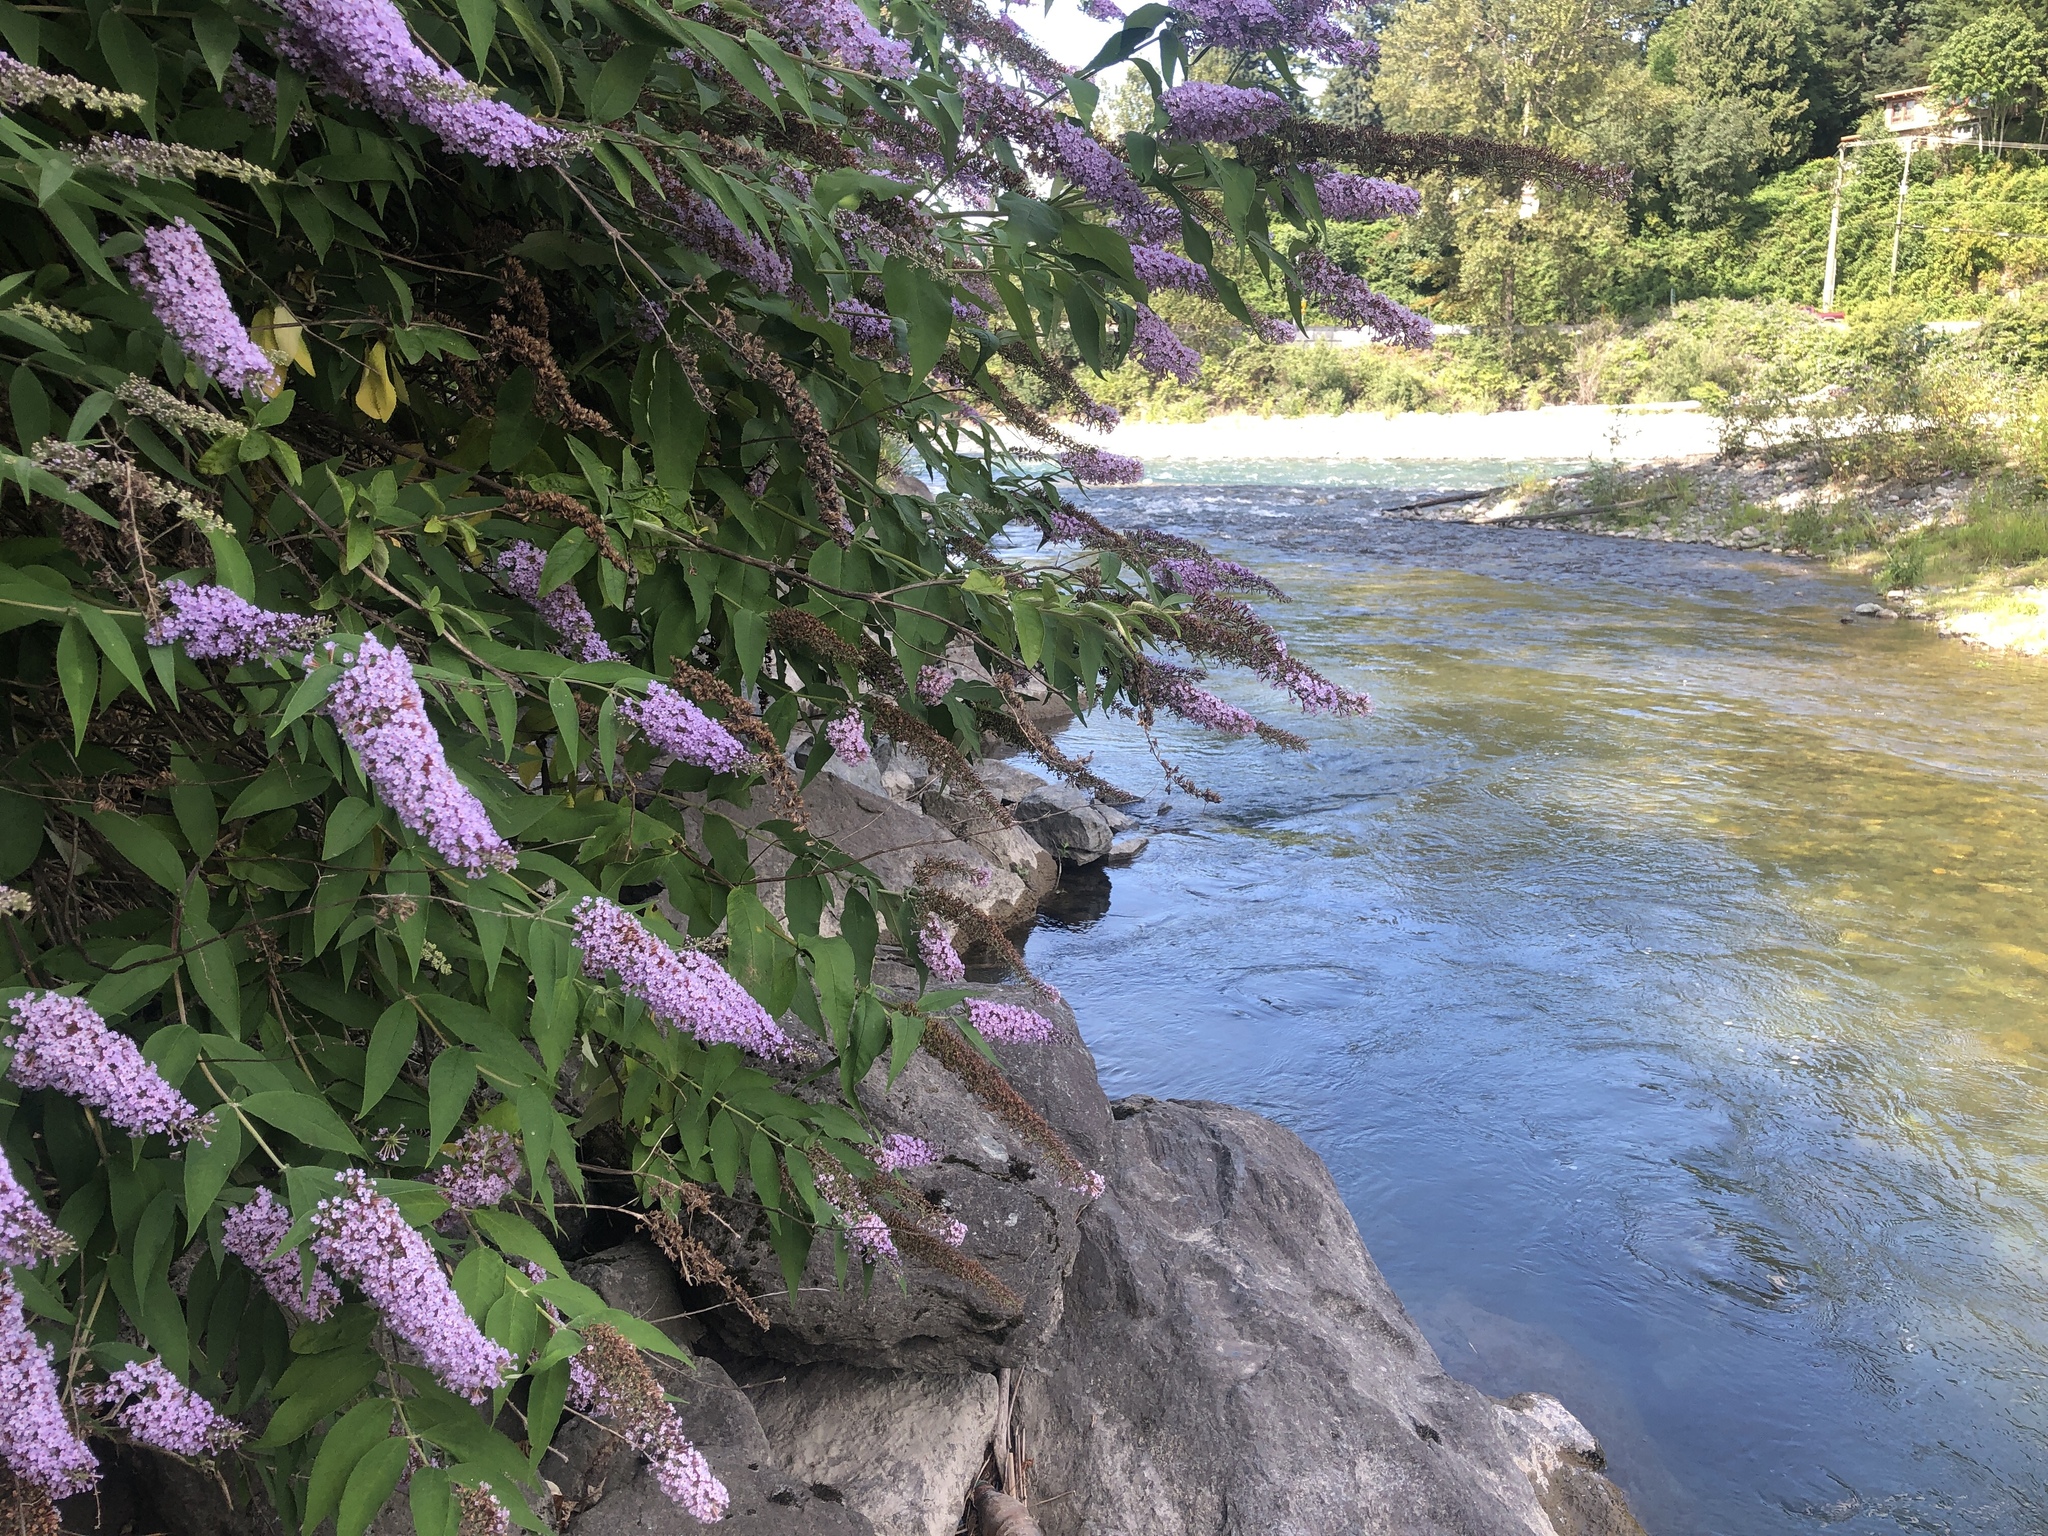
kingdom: Plantae
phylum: Tracheophyta
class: Magnoliopsida
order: Lamiales
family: Scrophulariaceae
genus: Buddleja
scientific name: Buddleja davidii
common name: Butterfly-bush
